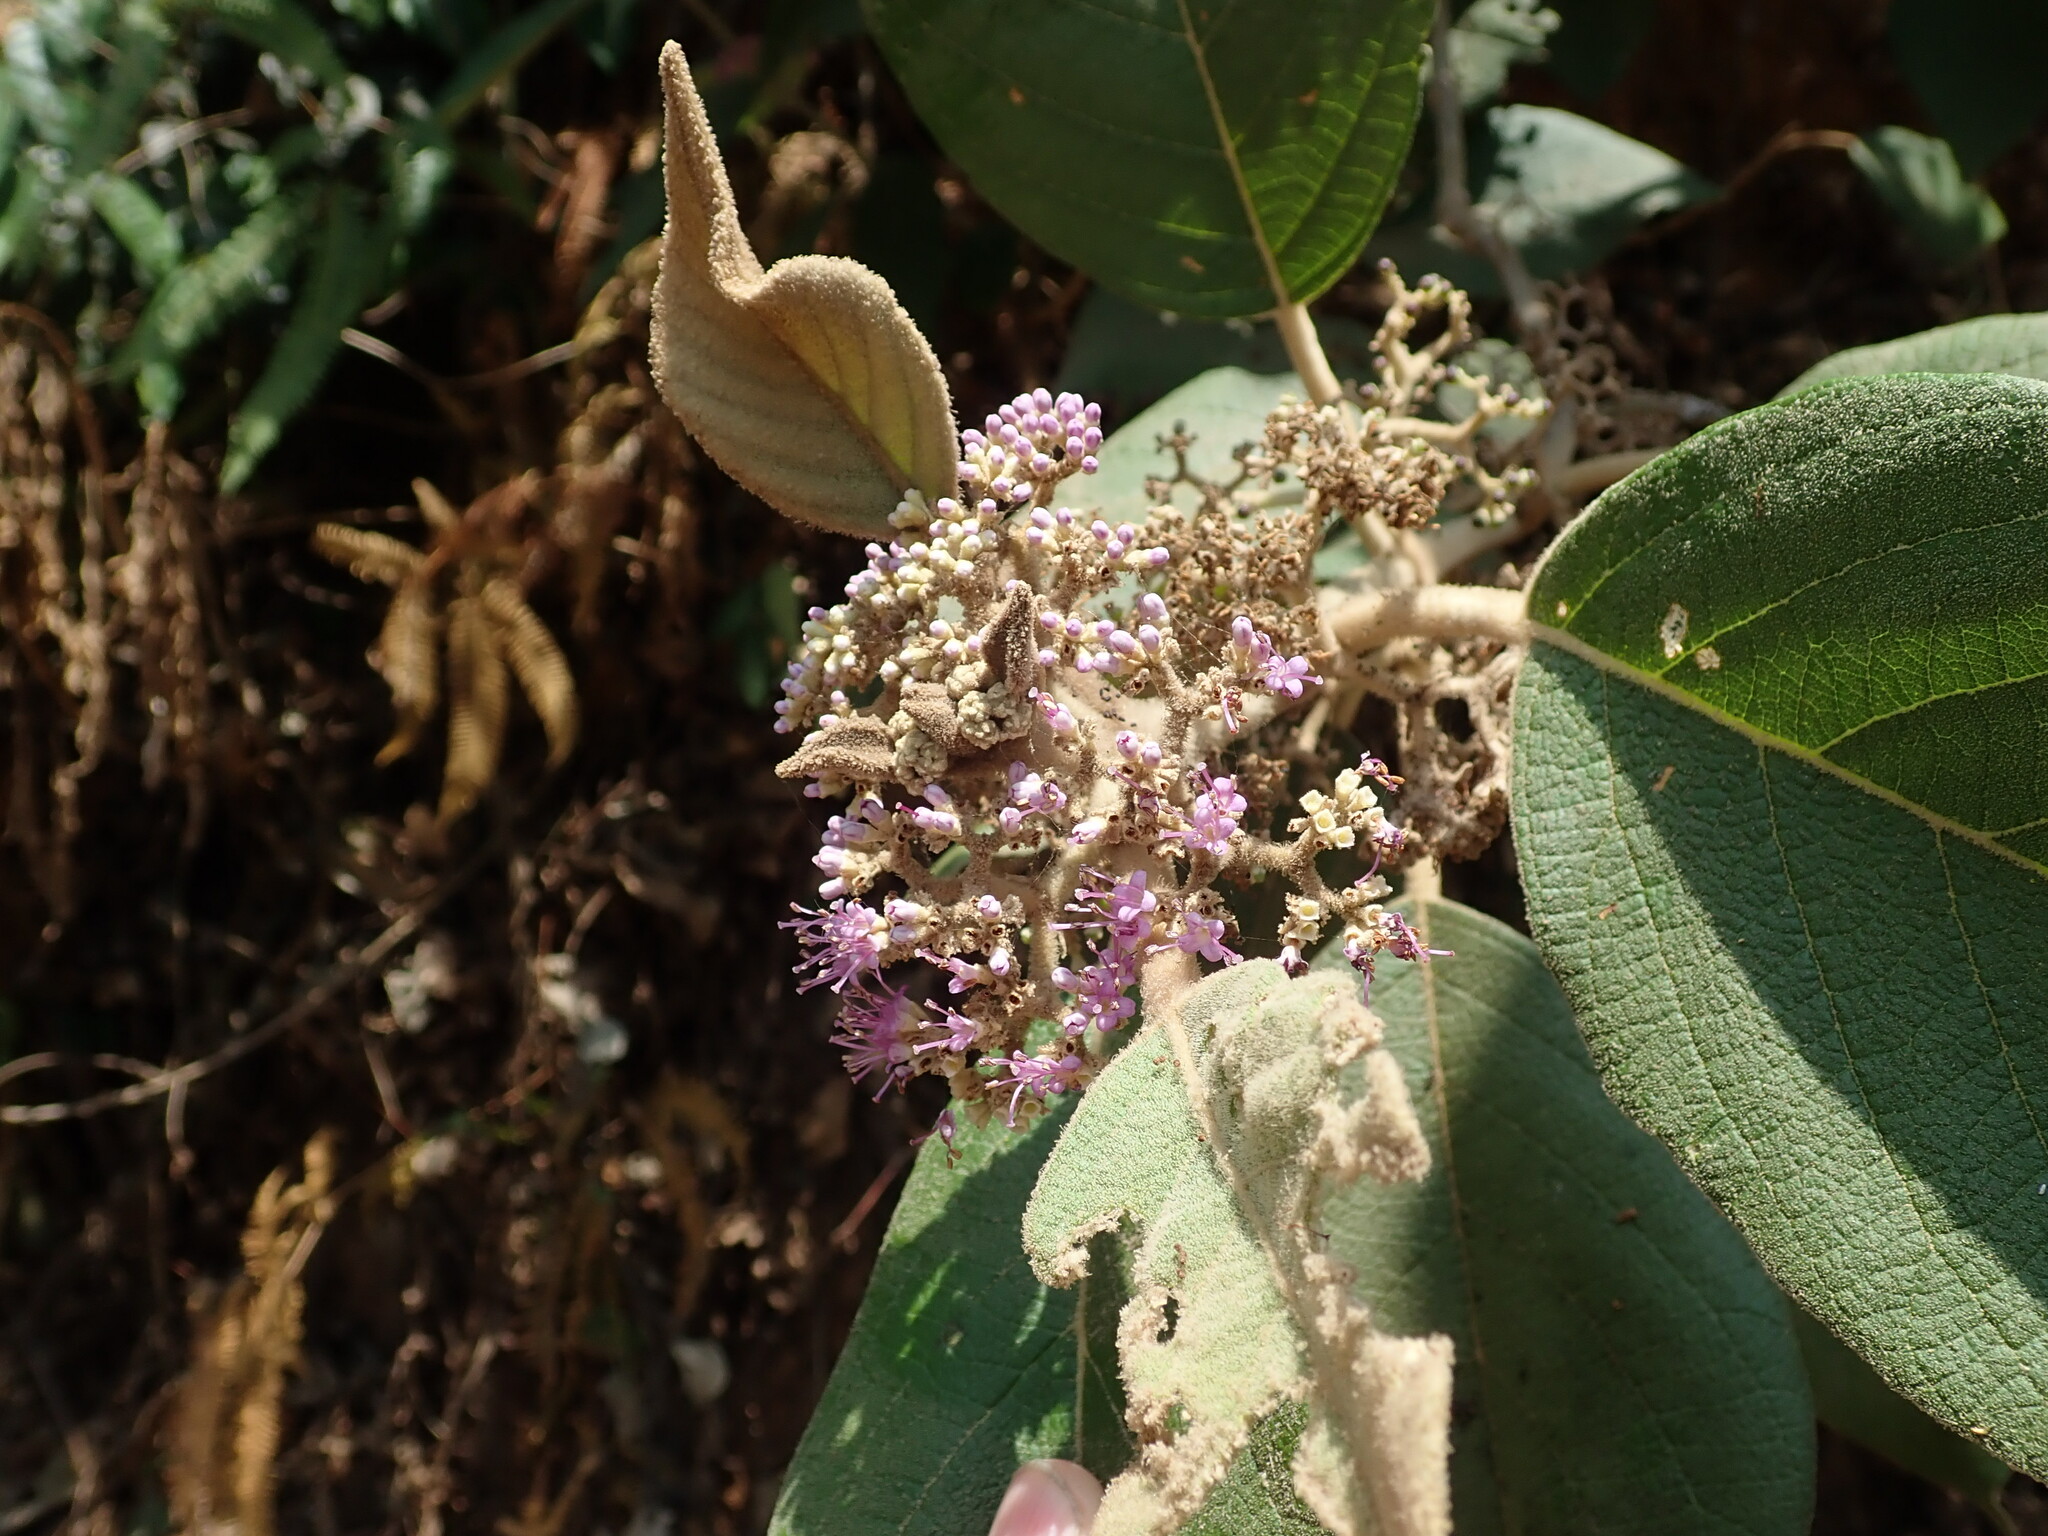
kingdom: Plantae
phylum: Tracheophyta
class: Magnoliopsida
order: Lamiales
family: Lamiaceae
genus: Callicarpa
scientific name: Callicarpa tomentosa
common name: Great woolly malayan-lilac
